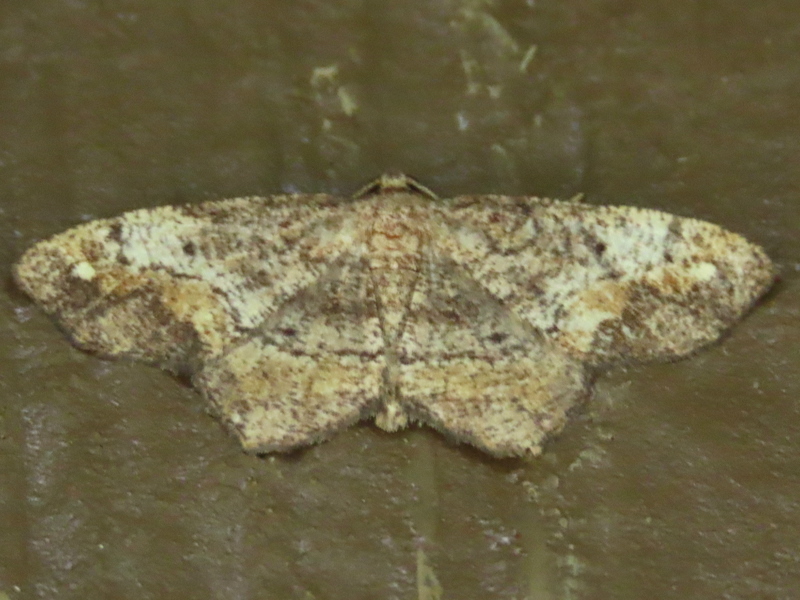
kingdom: Animalia
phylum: Arthropoda
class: Insecta
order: Lepidoptera
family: Geometridae
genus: Hypagyrtis
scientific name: Hypagyrtis unipunctata
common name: One-spotted variant
